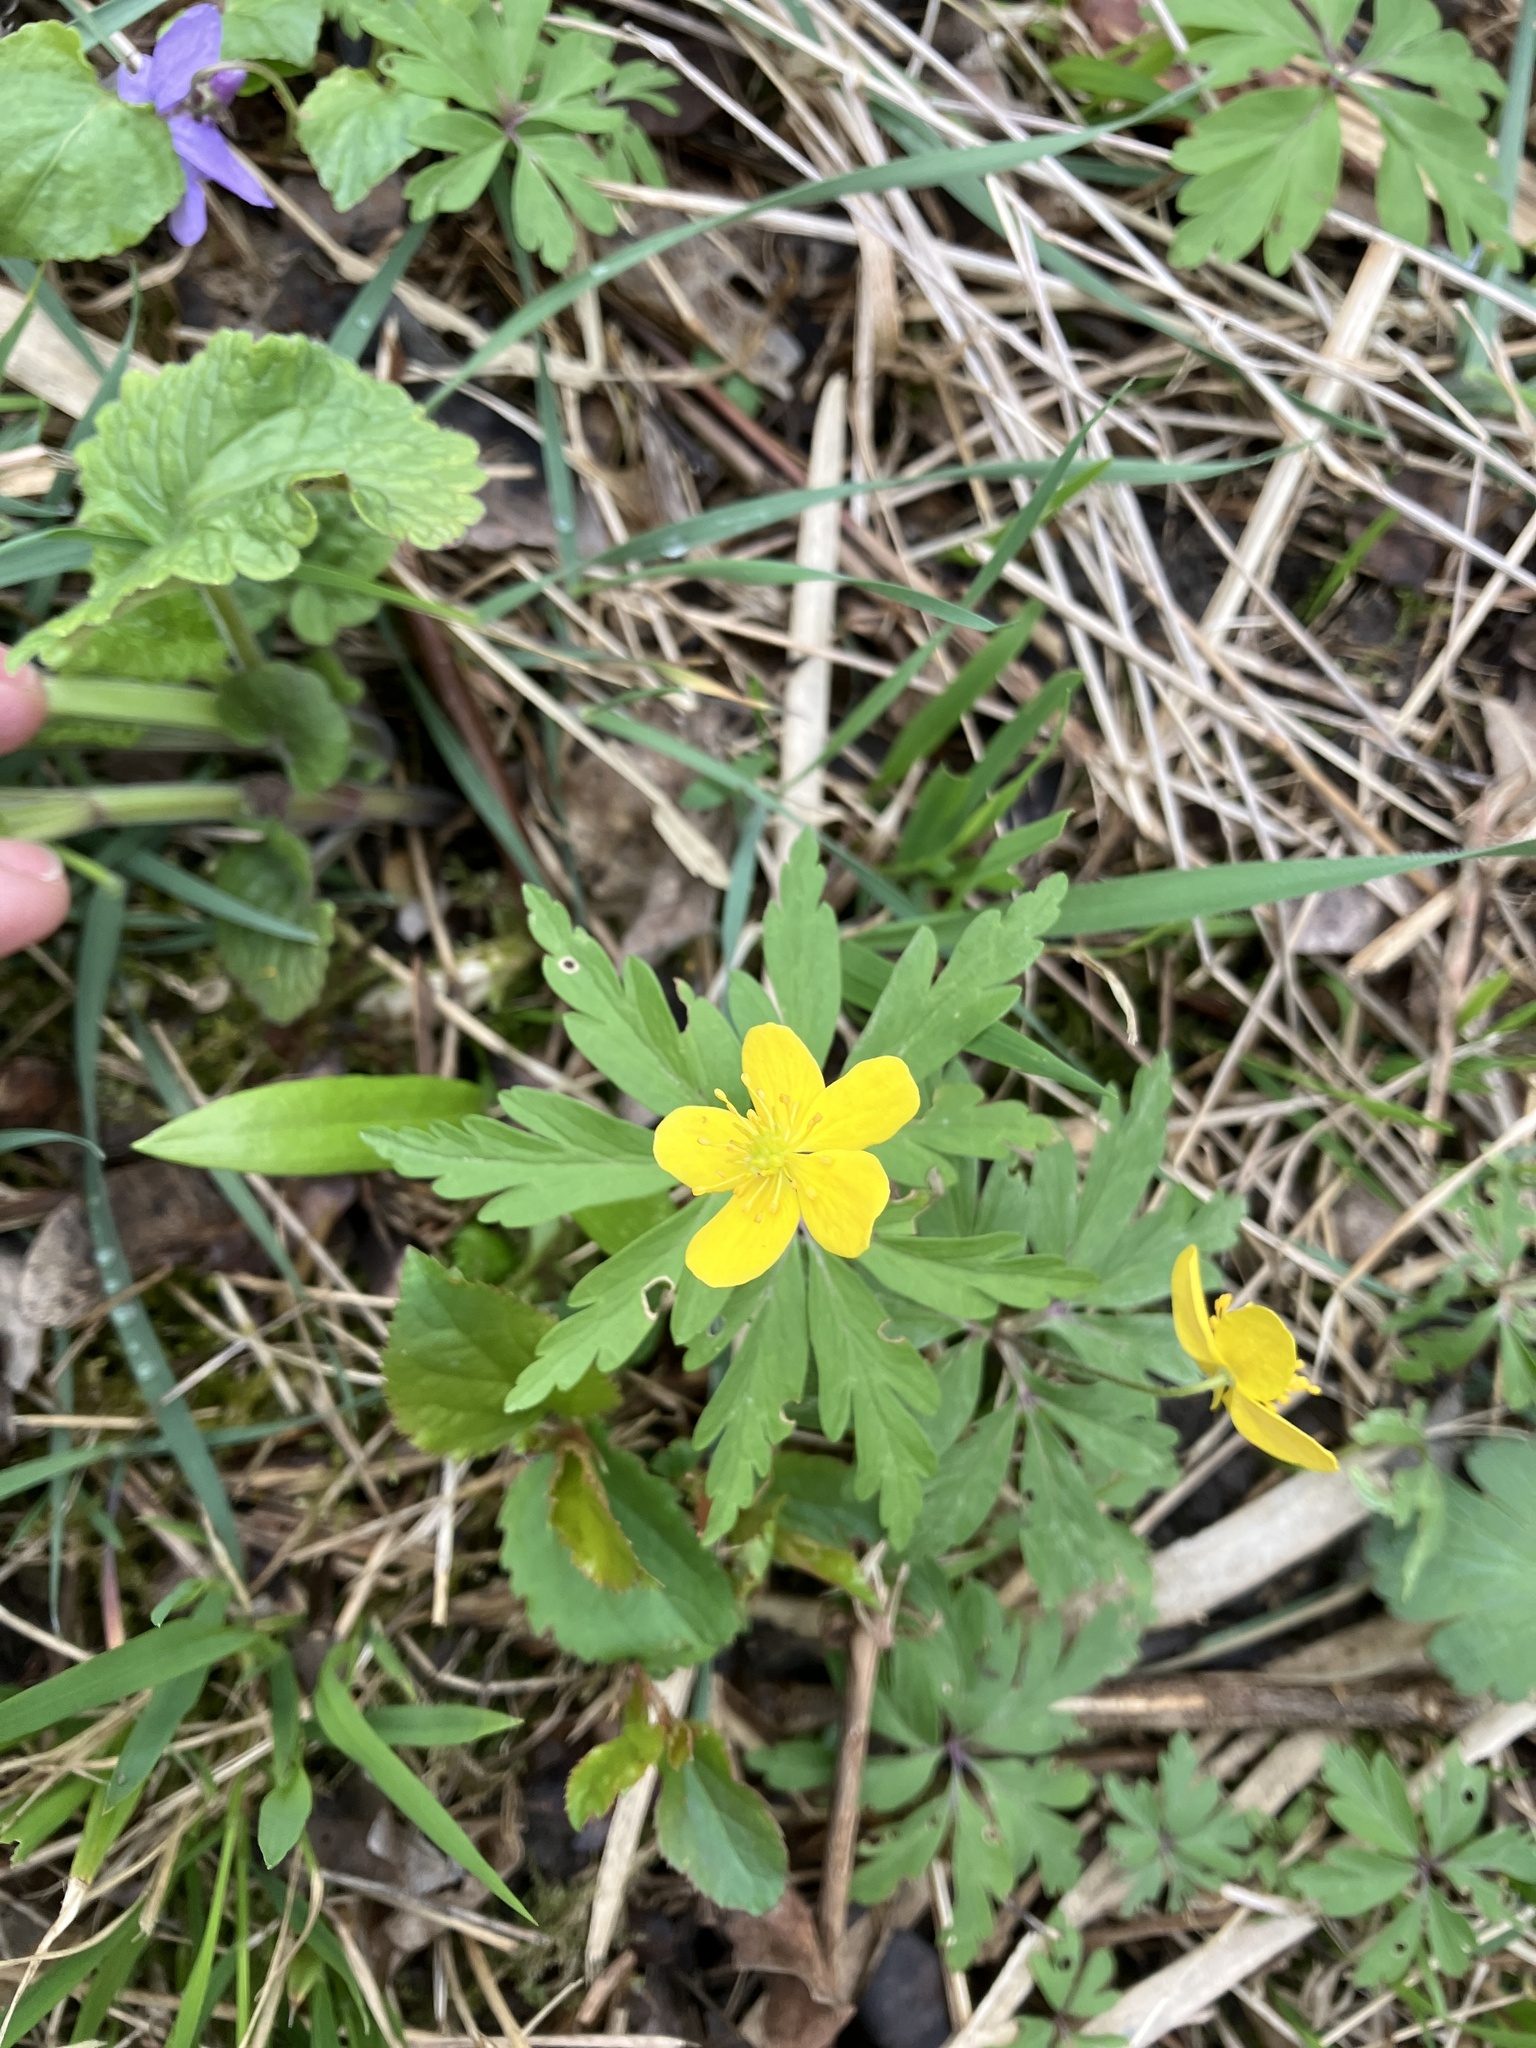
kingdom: Plantae
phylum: Tracheophyta
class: Magnoliopsida
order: Ranunculales
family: Ranunculaceae
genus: Anemone
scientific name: Anemone ranunculoides
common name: Yellow anemone
